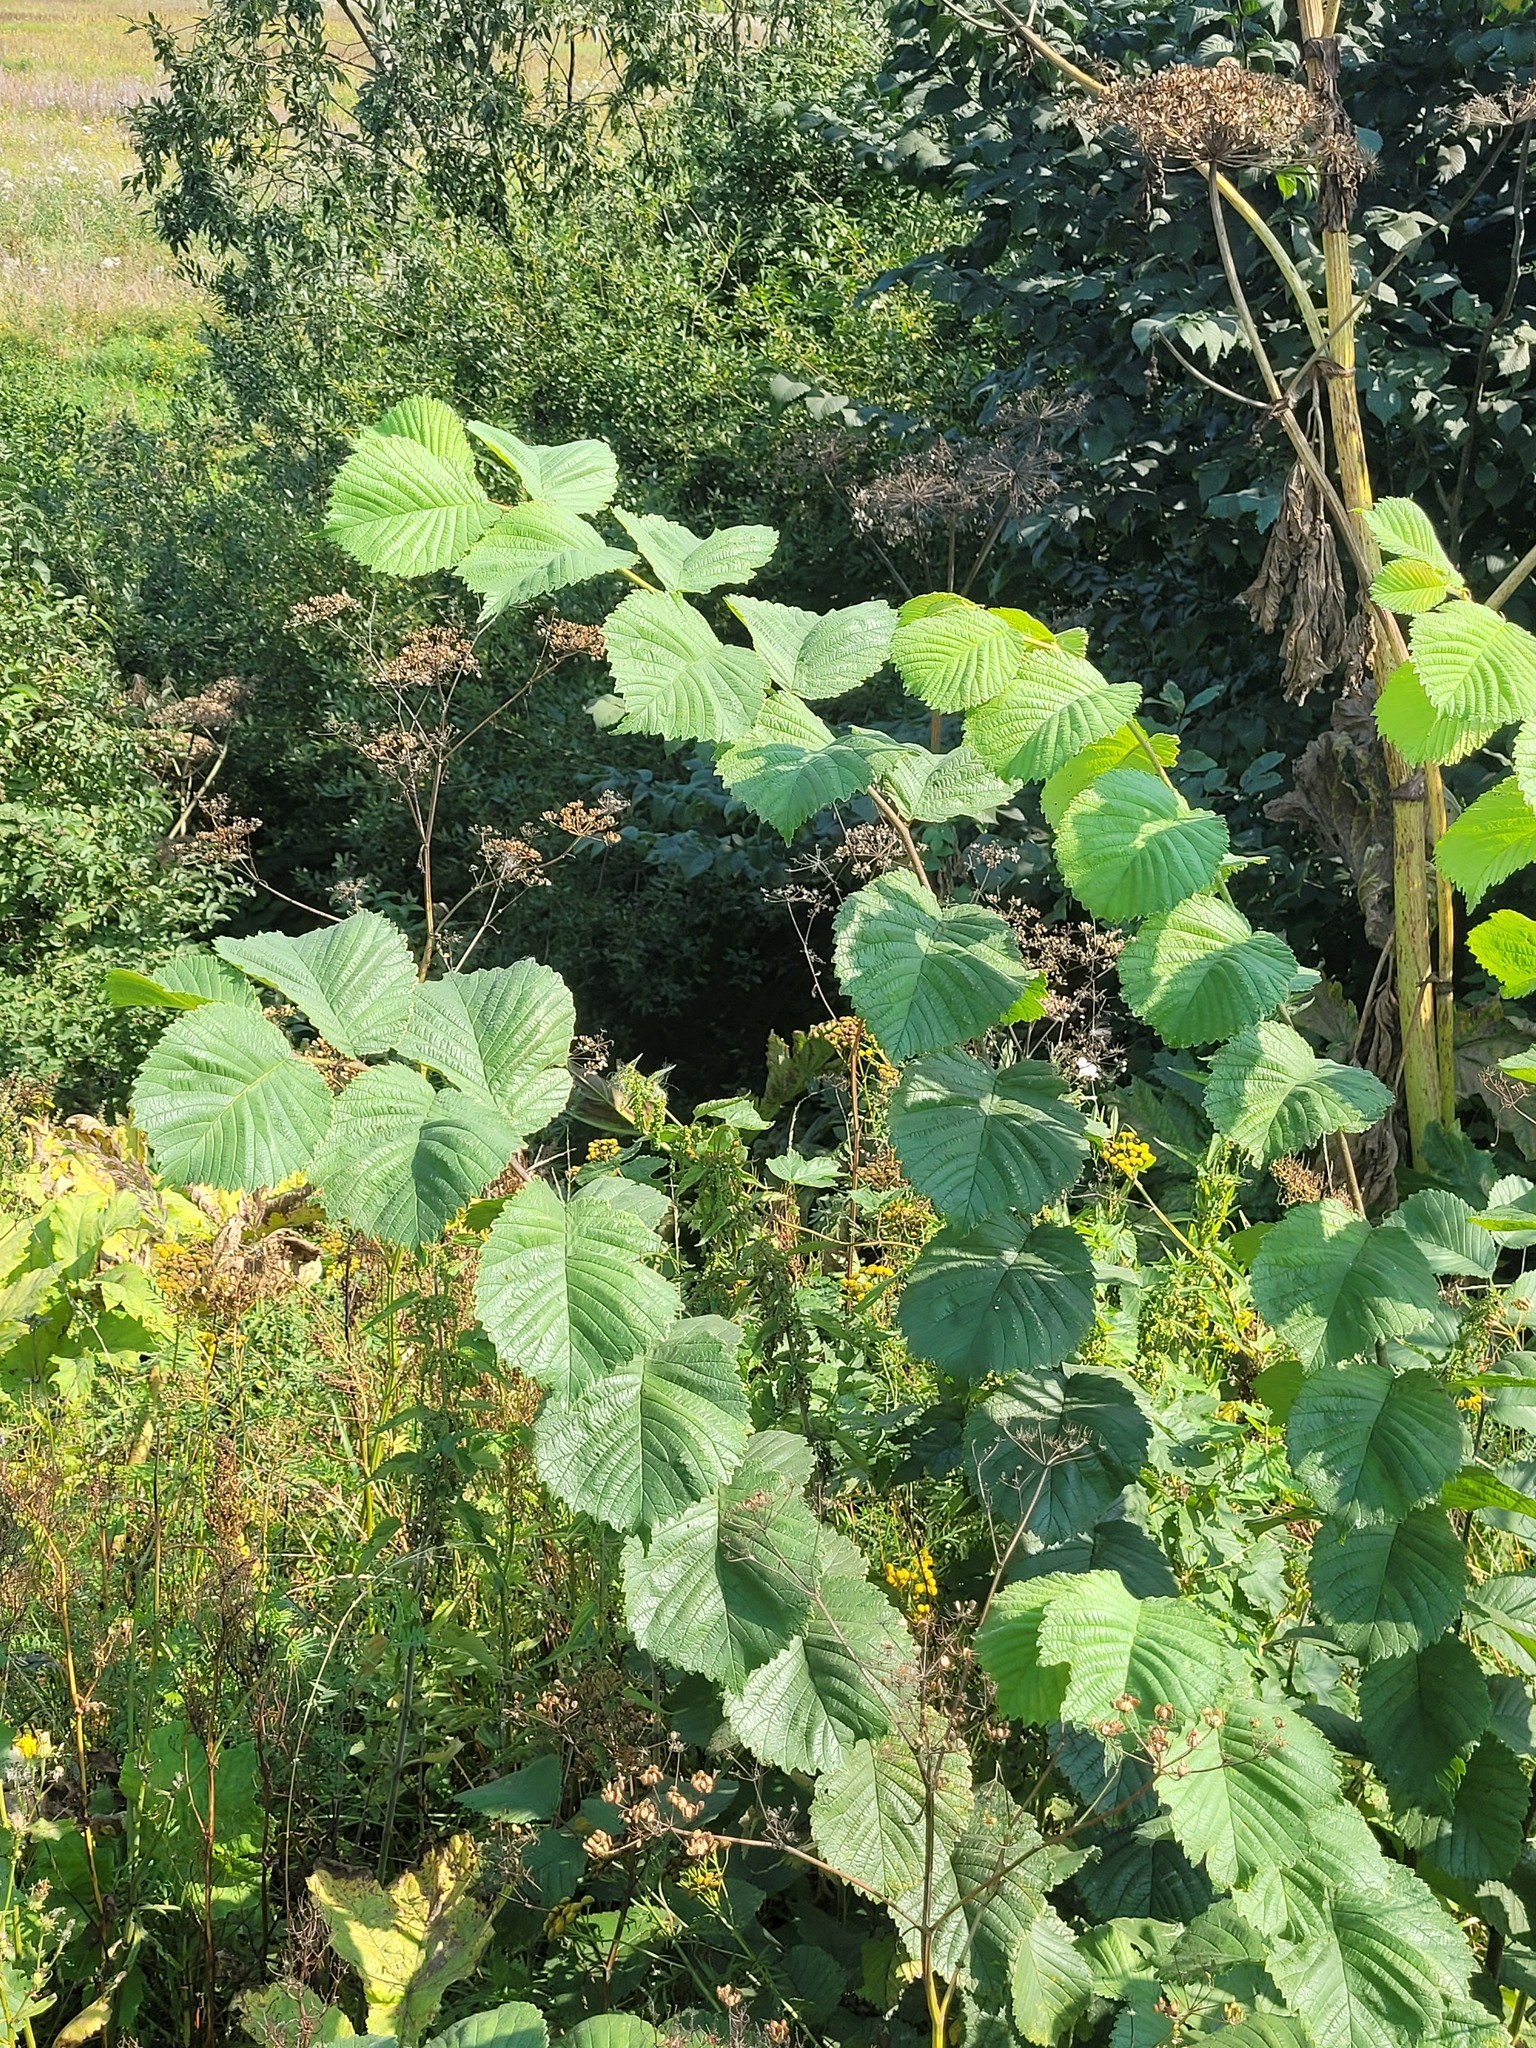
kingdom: Plantae
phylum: Tracheophyta
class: Magnoliopsida
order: Rosales
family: Ulmaceae
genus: Ulmus
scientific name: Ulmus glabra
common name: Wych elm
